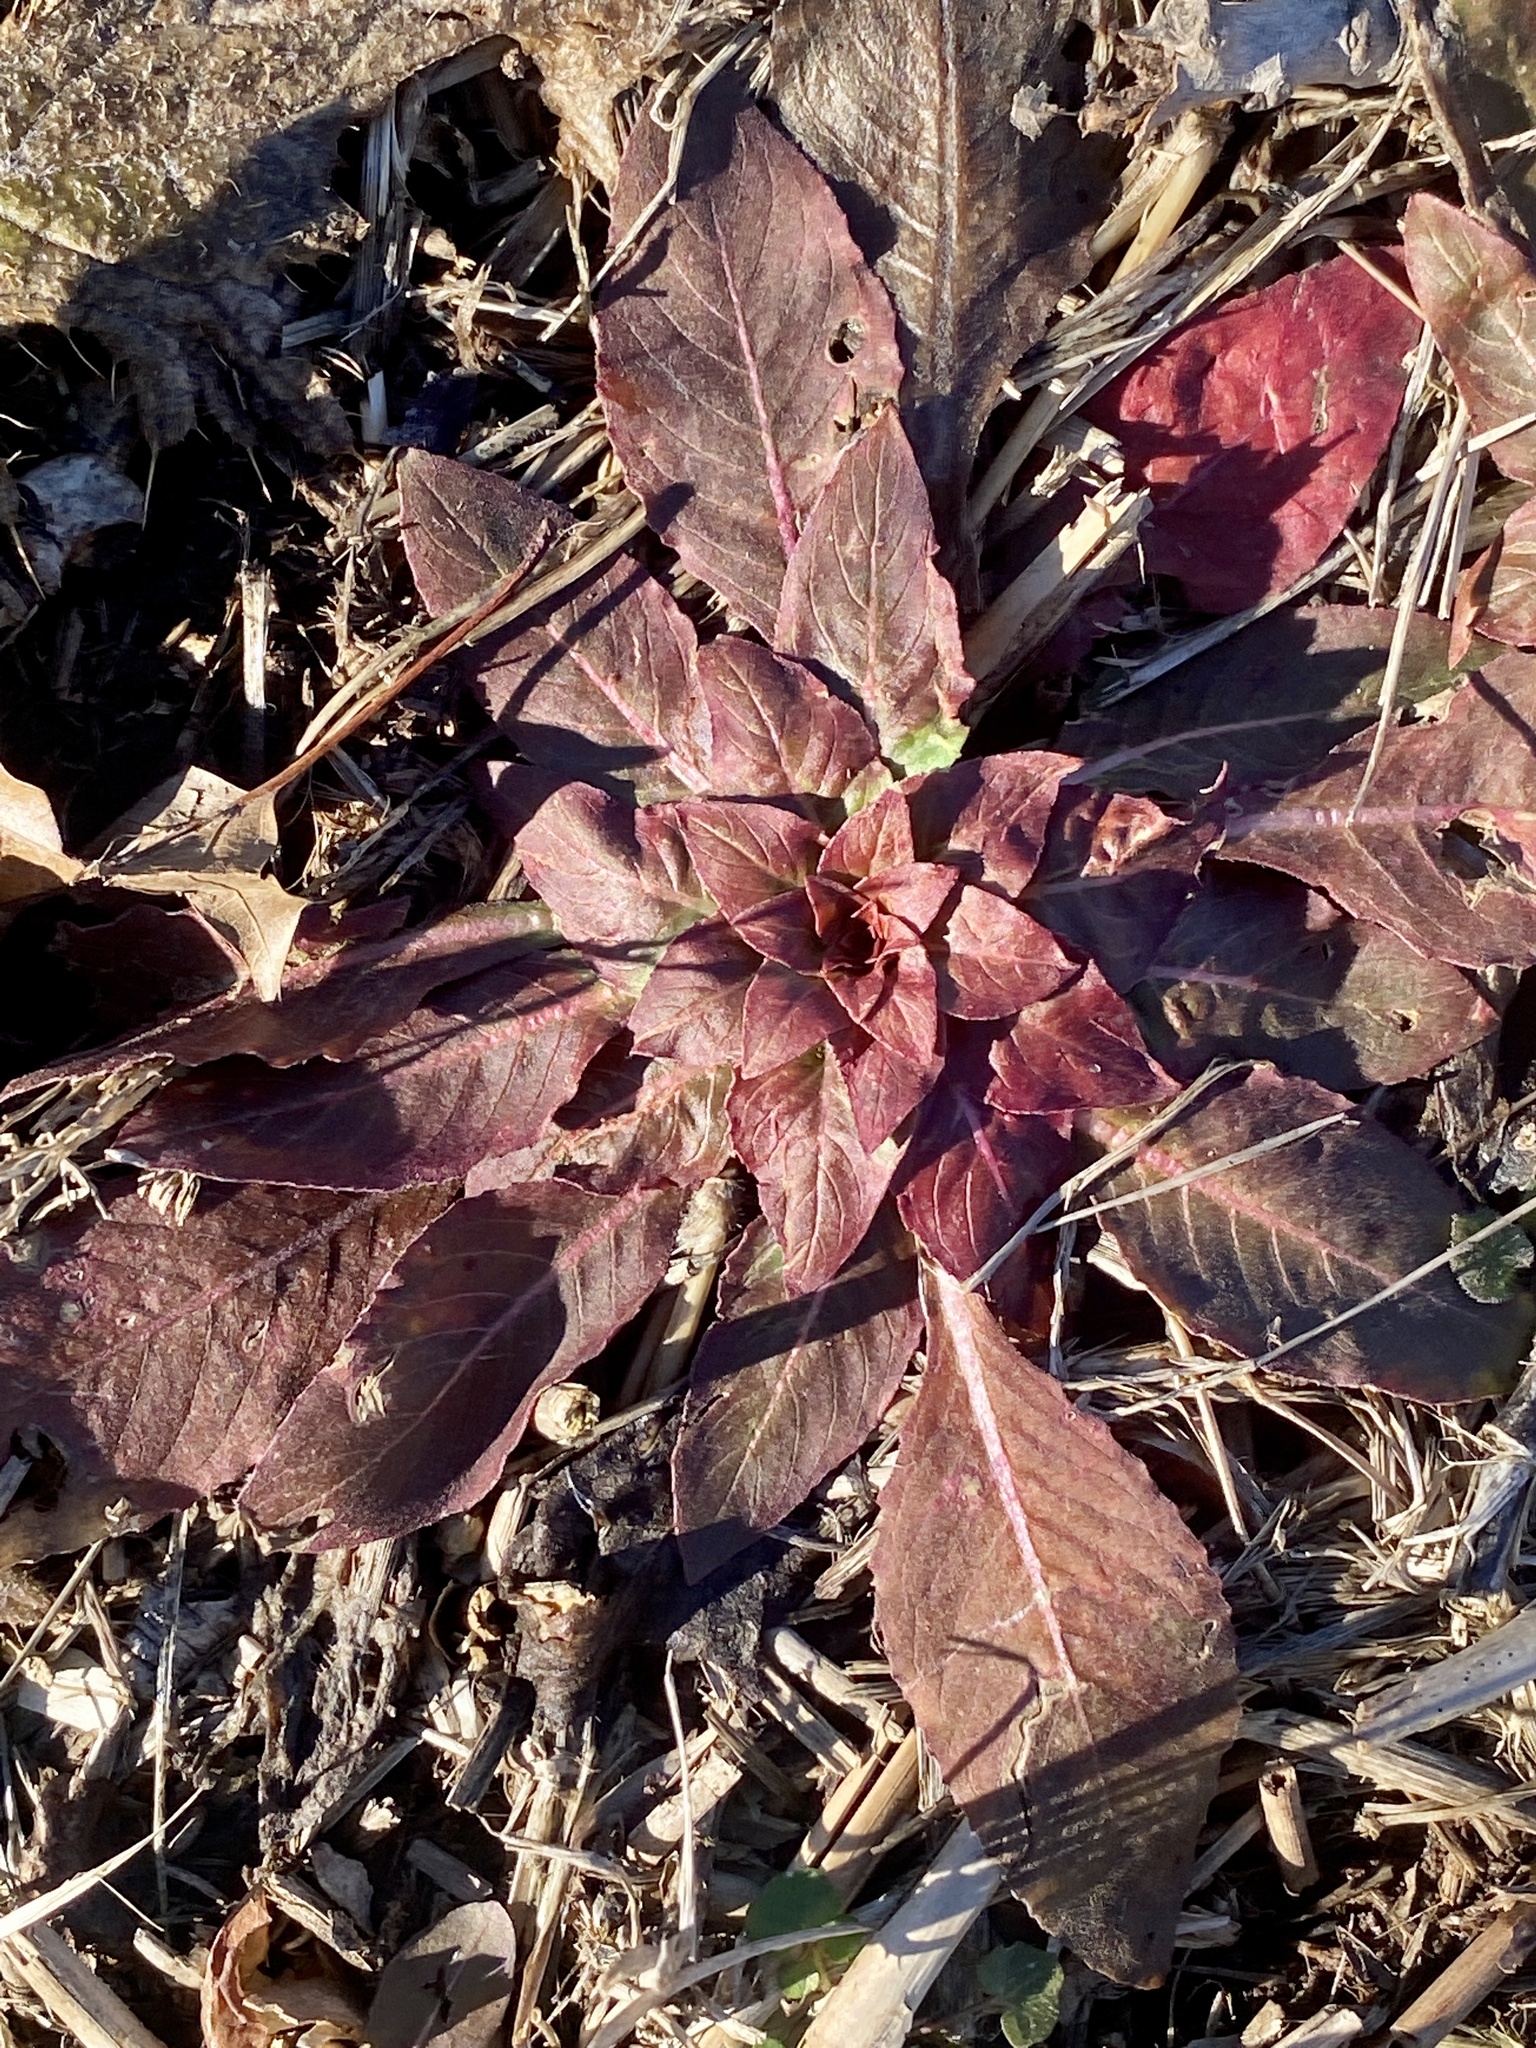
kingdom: Plantae
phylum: Tracheophyta
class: Magnoliopsida
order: Myrtales
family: Onagraceae
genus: Oenothera
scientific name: Oenothera biennis
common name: Common evening-primrose
